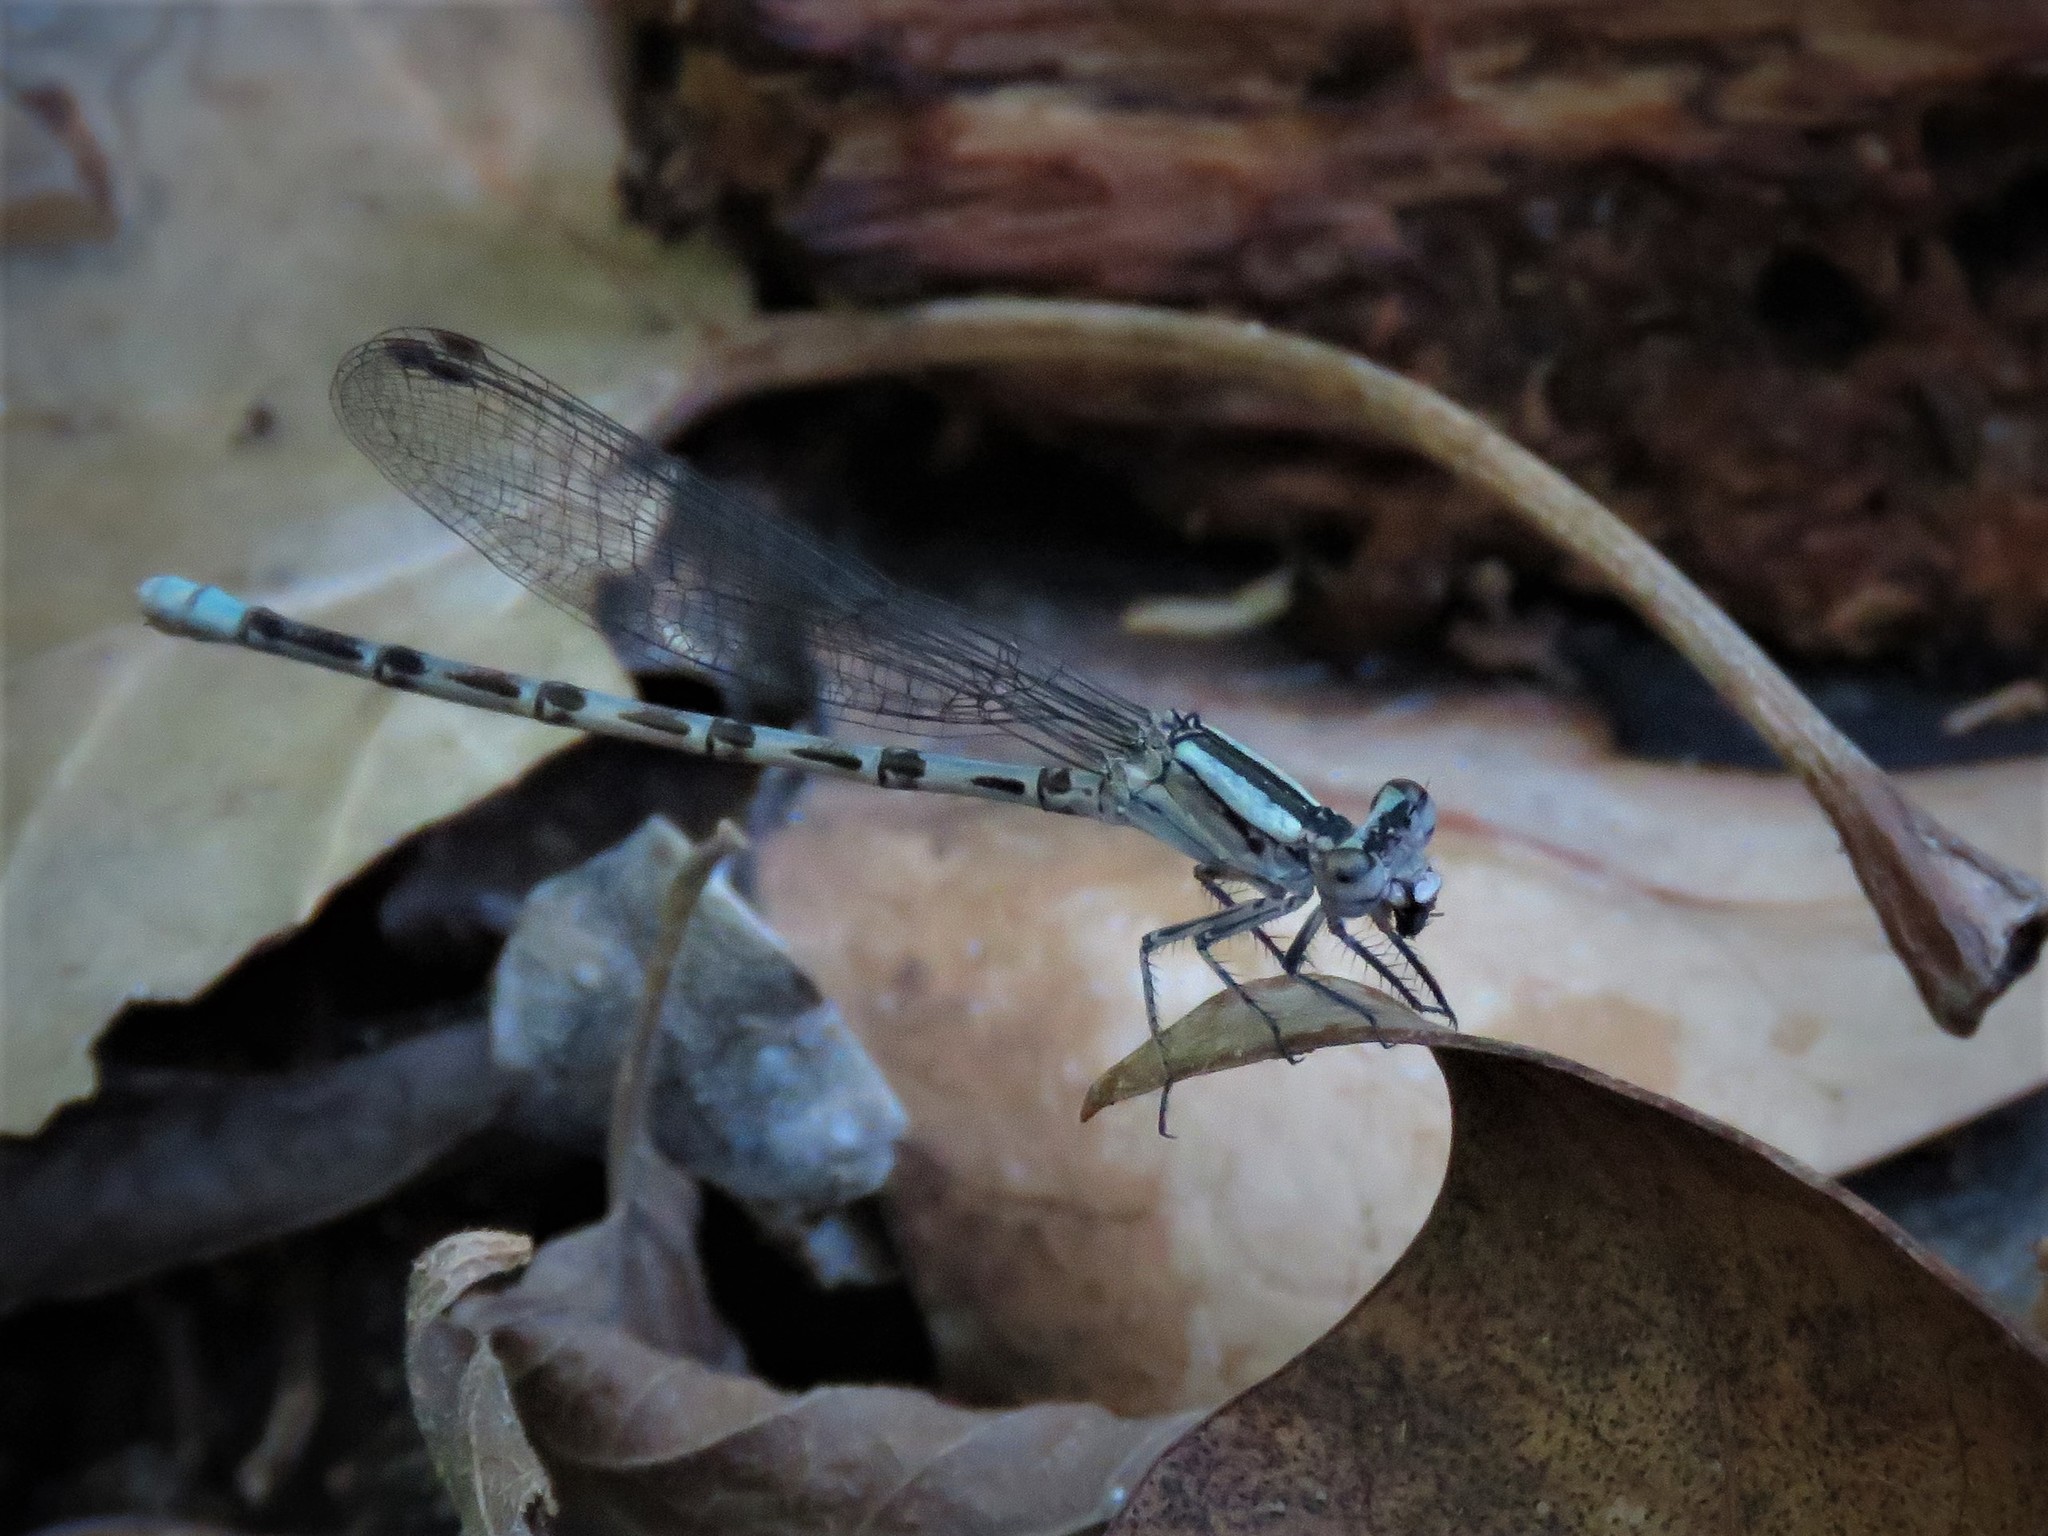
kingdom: Animalia
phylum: Arthropoda
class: Insecta
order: Odonata
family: Coenagrionidae
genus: Argia
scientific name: Argia immunda
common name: Kiowa dancer
